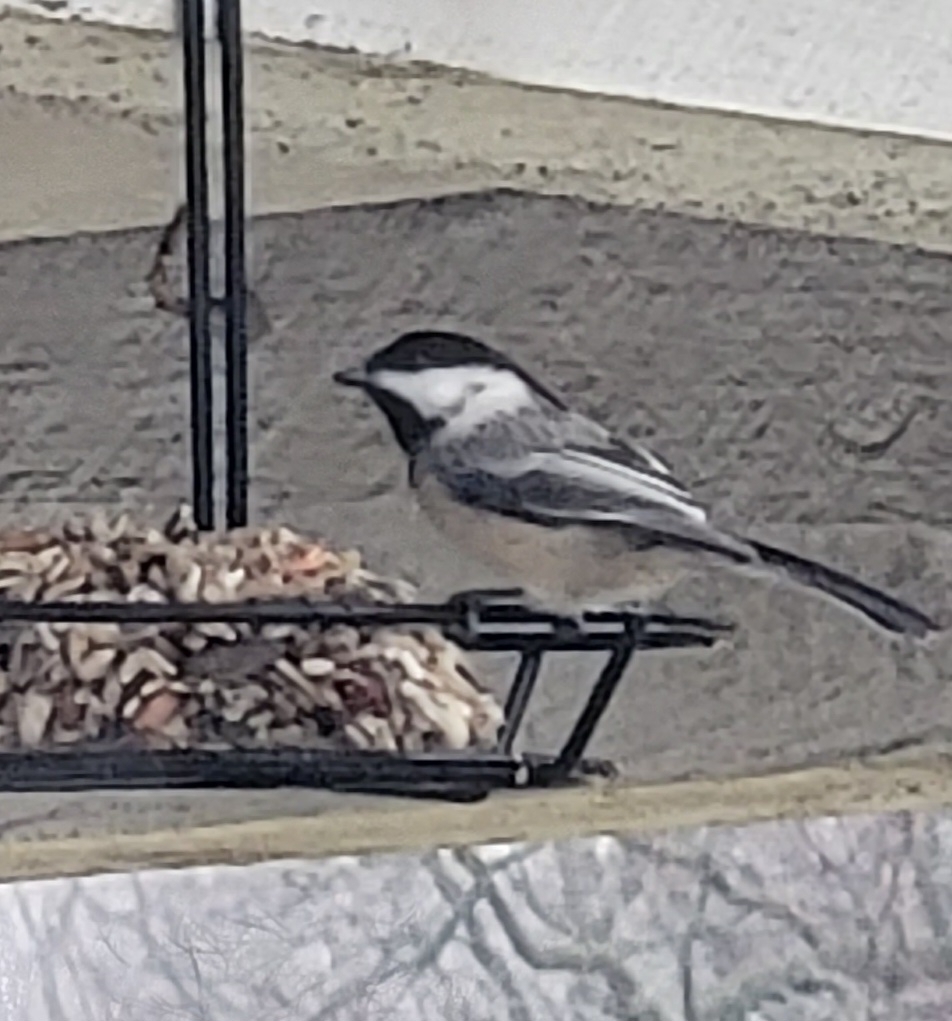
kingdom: Animalia
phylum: Chordata
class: Aves
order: Passeriformes
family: Paridae
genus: Poecile
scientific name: Poecile atricapillus
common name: Black-capped chickadee
